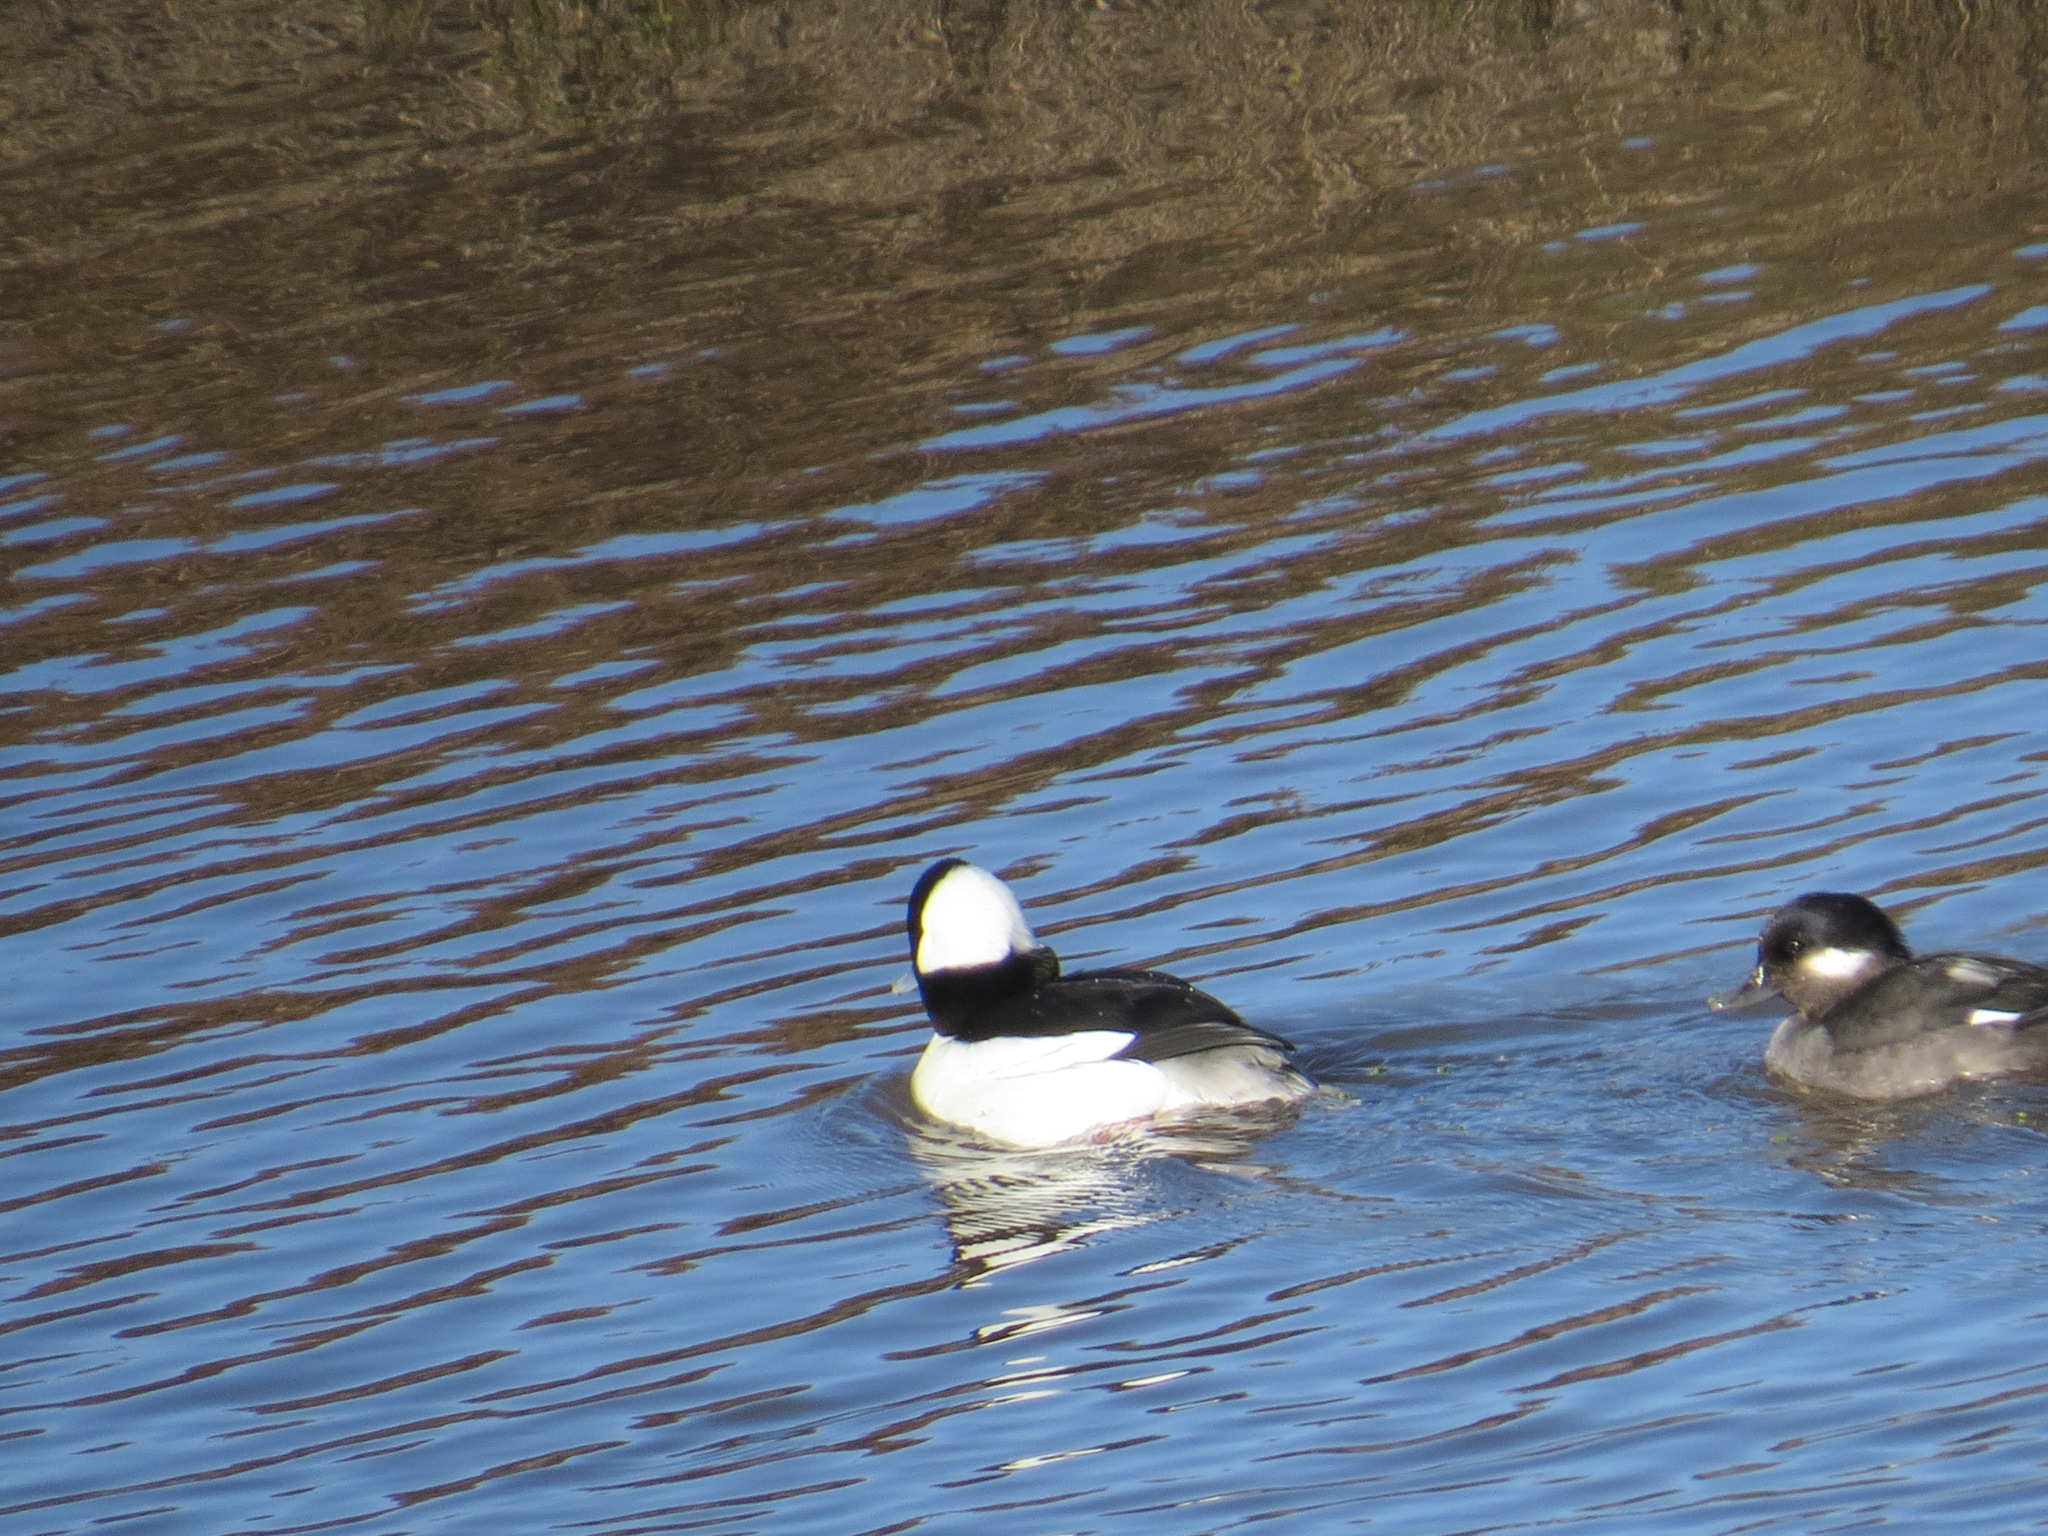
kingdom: Animalia
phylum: Chordata
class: Aves
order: Anseriformes
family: Anatidae
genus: Bucephala
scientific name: Bucephala albeola
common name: Bufflehead
